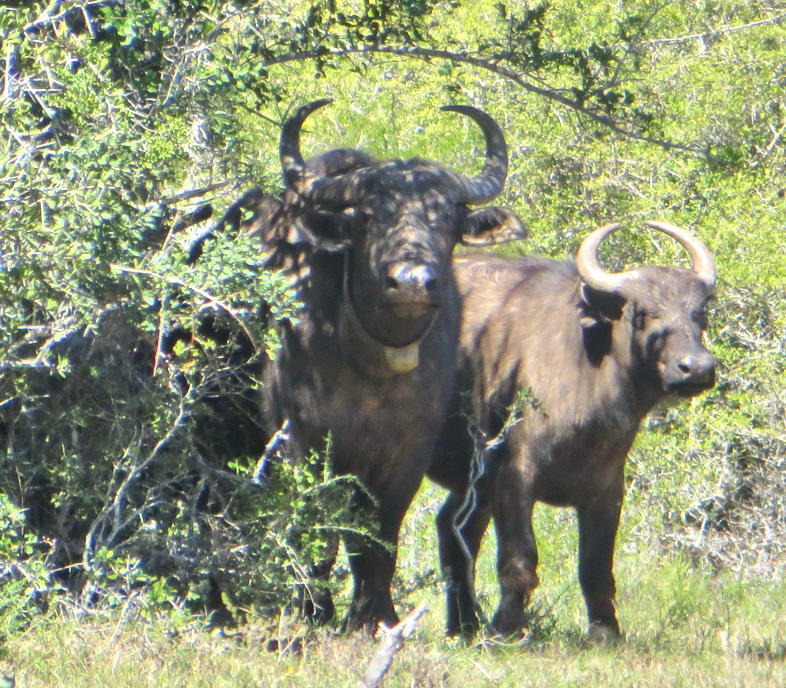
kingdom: Animalia
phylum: Chordata
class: Mammalia
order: Artiodactyla
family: Bovidae
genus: Syncerus
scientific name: Syncerus caffer
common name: African buffalo
